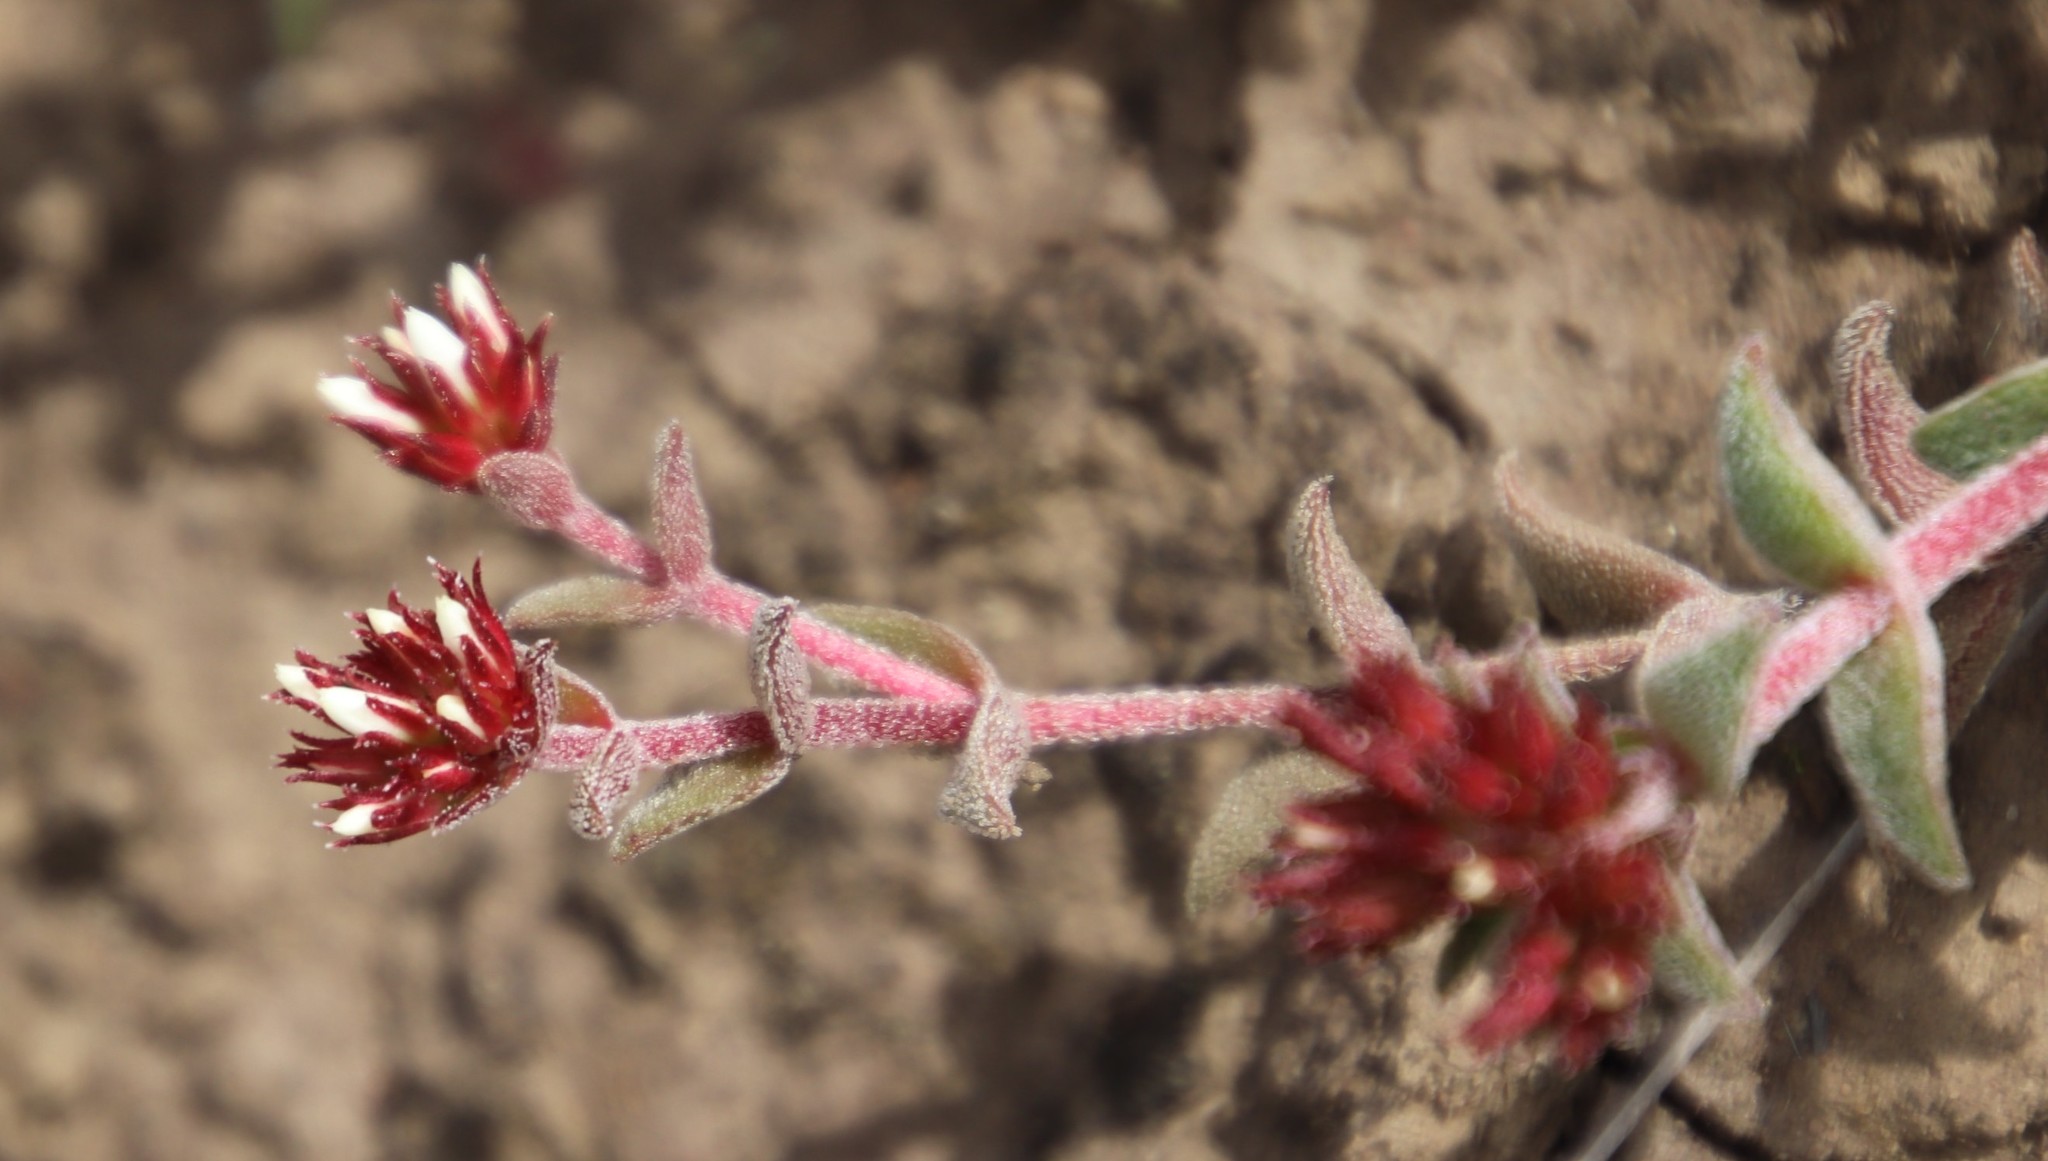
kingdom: Plantae
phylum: Tracheophyta
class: Magnoliopsida
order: Saxifragales
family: Crassulaceae
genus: Crassula
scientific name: Crassula obovata
